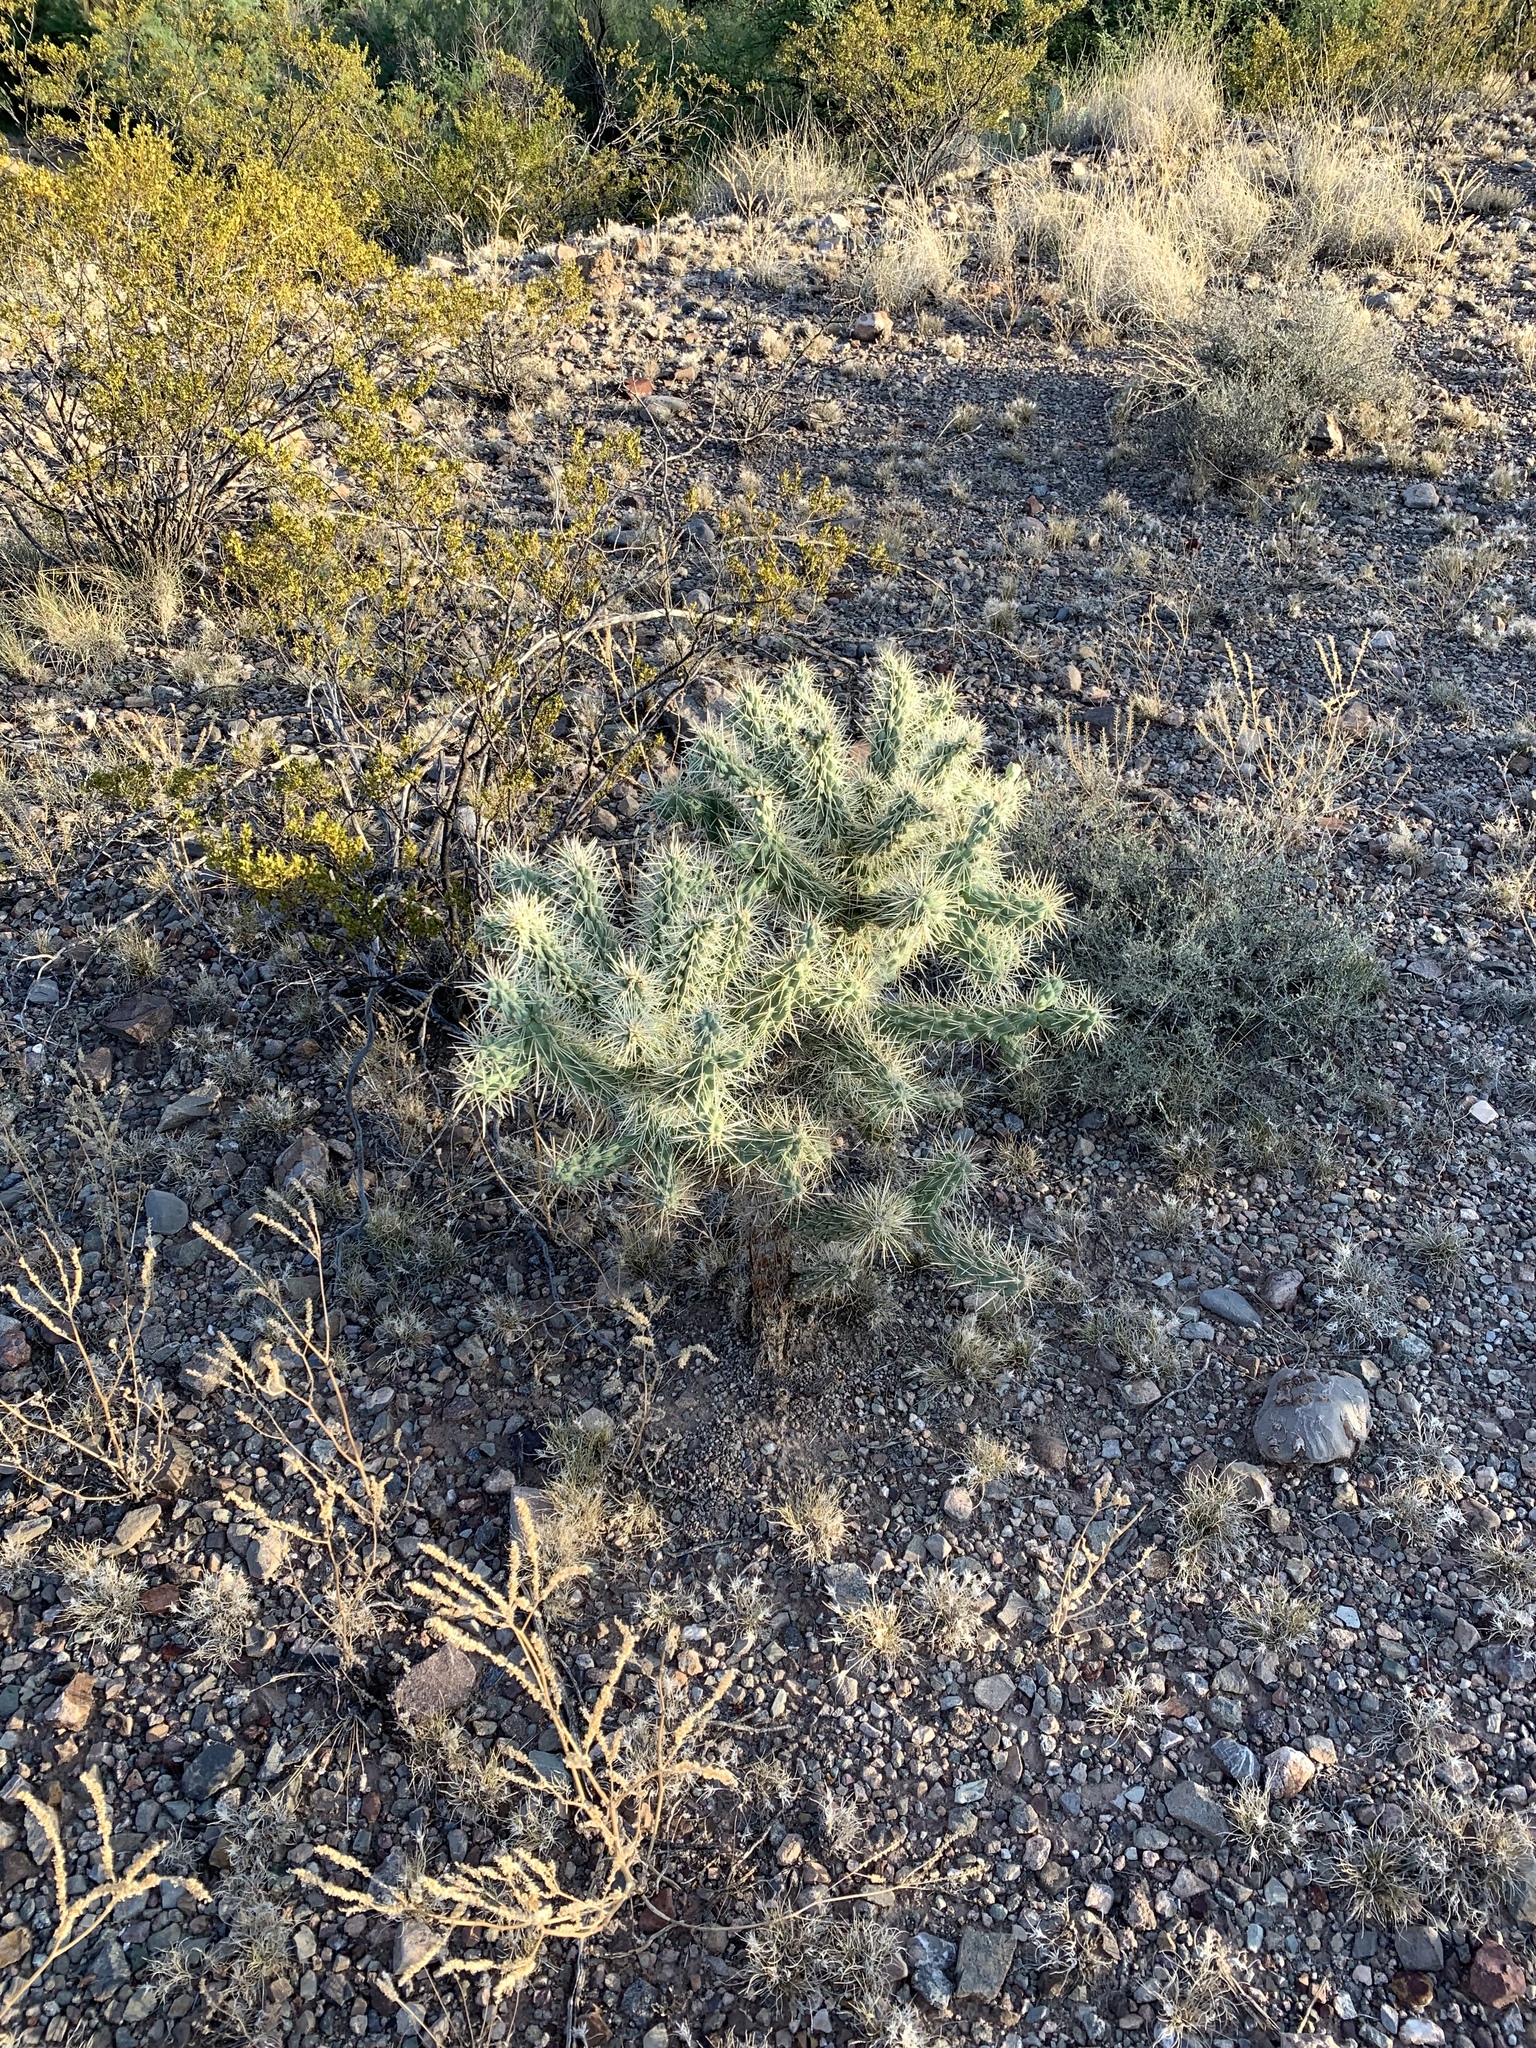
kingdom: Plantae
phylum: Tracheophyta
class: Magnoliopsida
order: Caryophyllales
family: Cactaceae
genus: Cylindropuntia
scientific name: Cylindropuntia fulgida
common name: Jumping cholla
